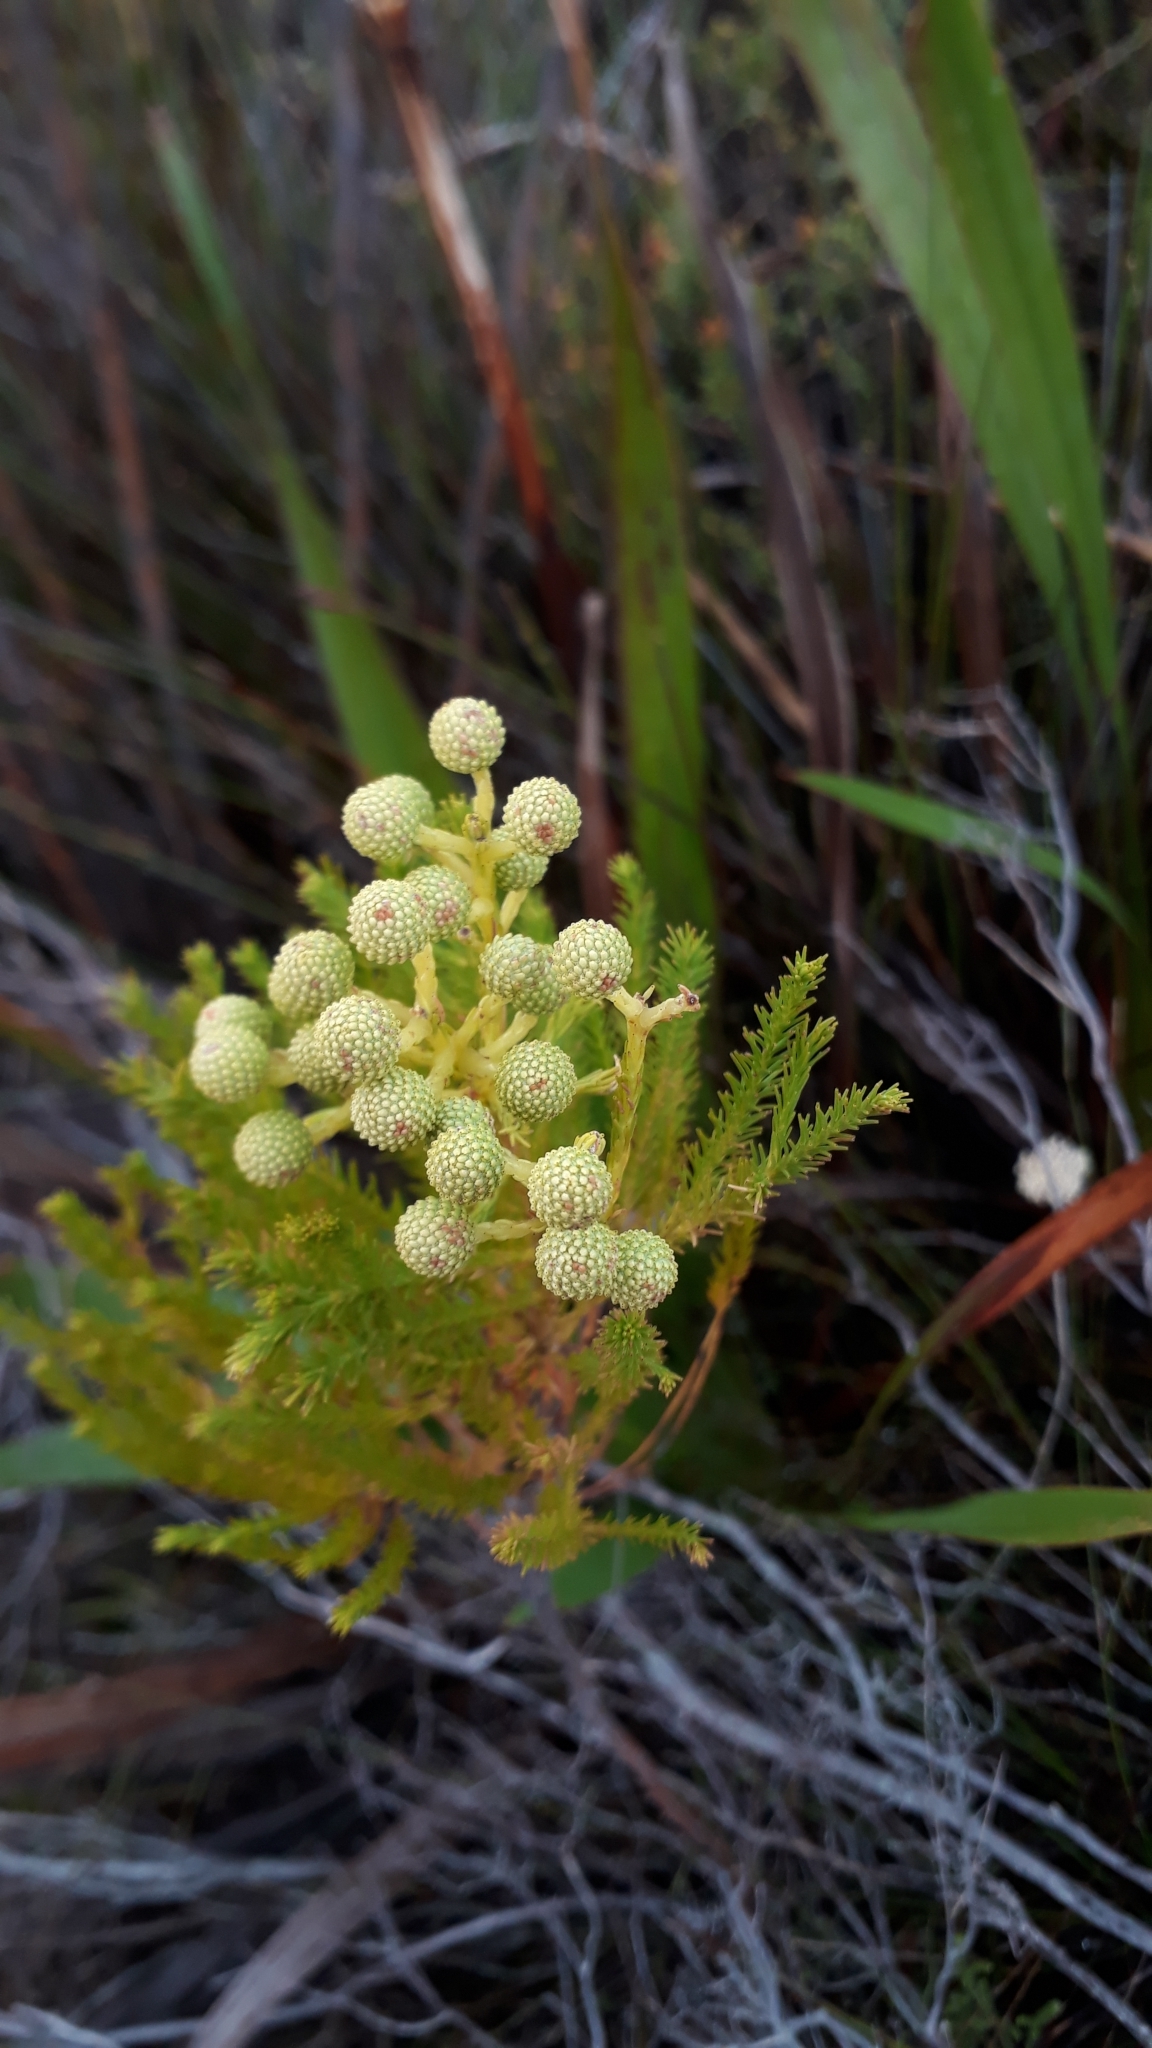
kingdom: Plantae
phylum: Tracheophyta
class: Magnoliopsida
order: Bruniales
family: Bruniaceae
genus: Berzelia
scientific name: Berzelia lanuginosa
